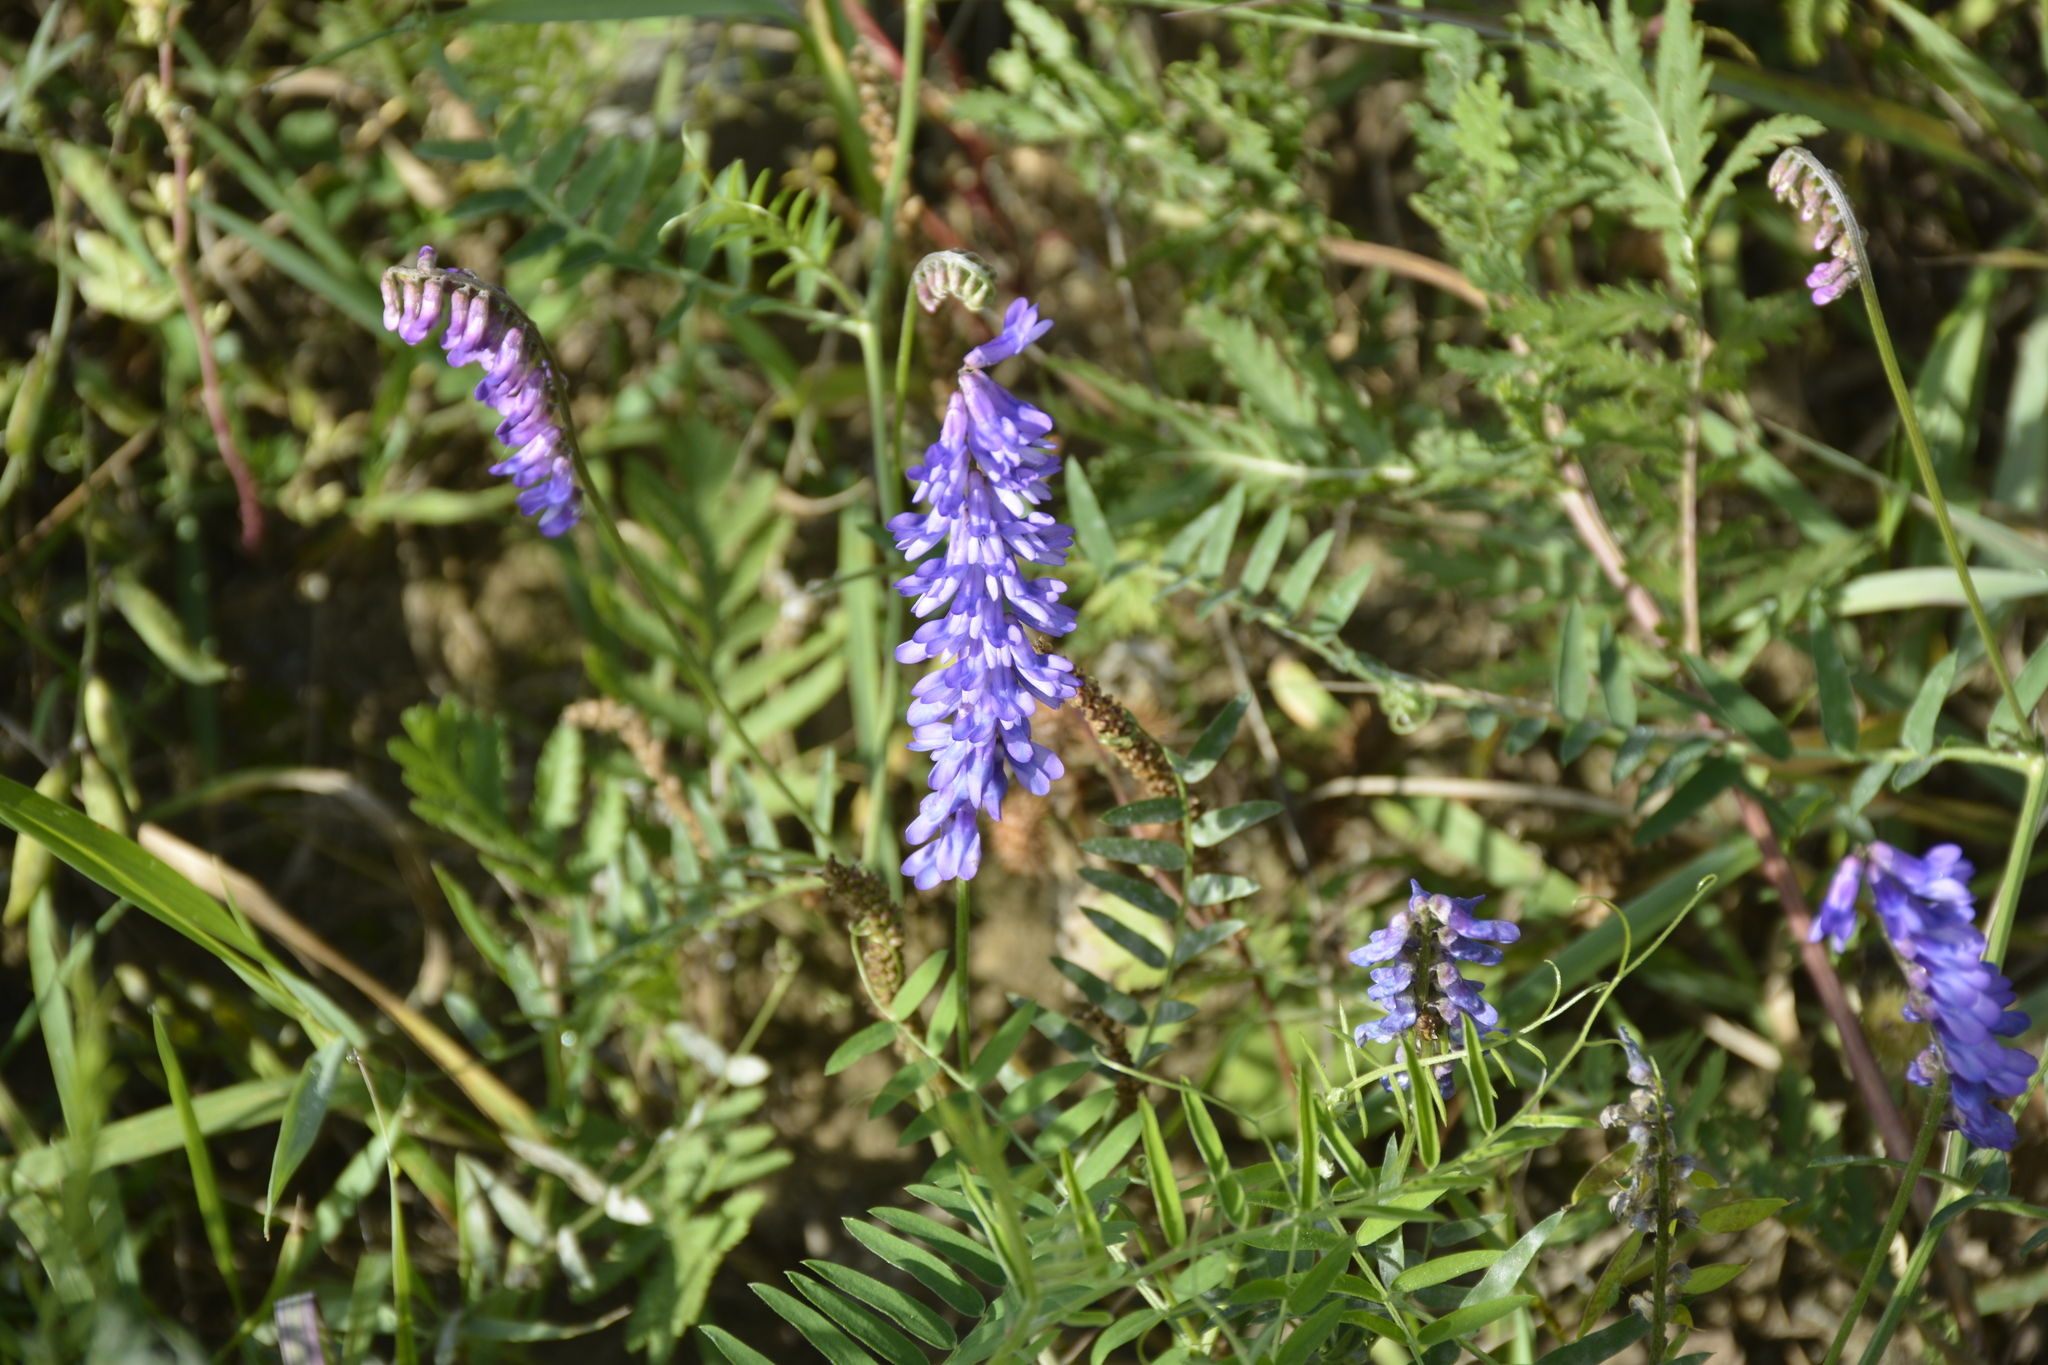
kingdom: Plantae
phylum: Tracheophyta
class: Magnoliopsida
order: Fabales
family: Fabaceae
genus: Vicia
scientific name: Vicia cracca
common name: Bird vetch
